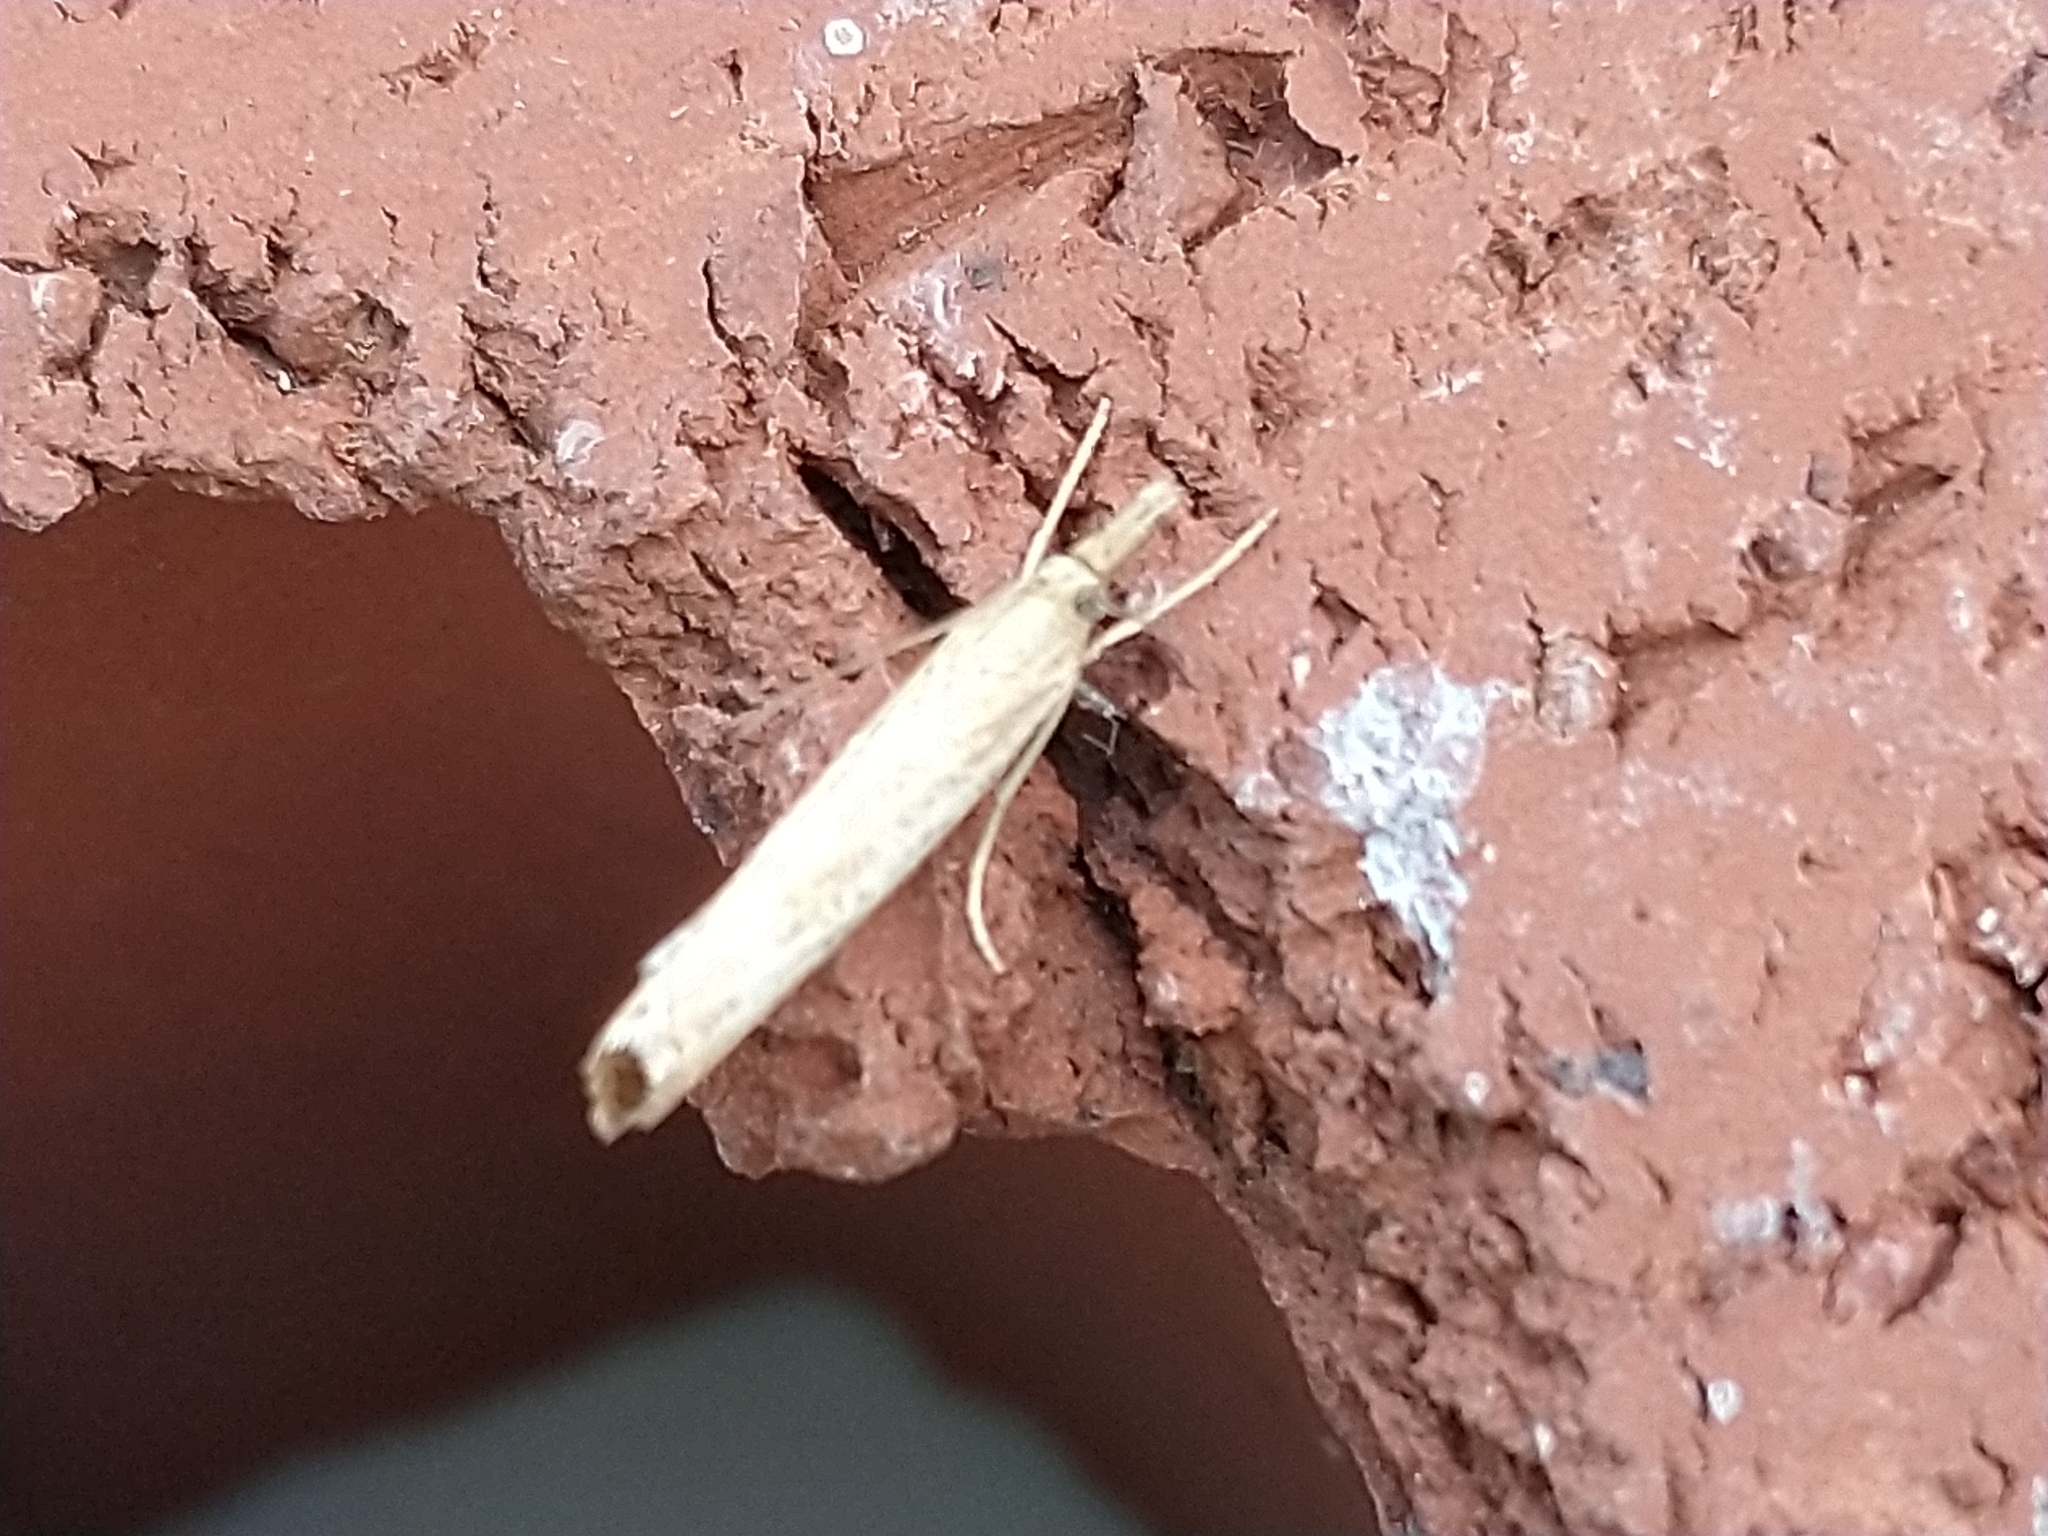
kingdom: Animalia
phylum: Arthropoda
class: Insecta
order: Lepidoptera
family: Crambidae
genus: Agriphila
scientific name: Agriphila straminella
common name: Straw grass-veneer
